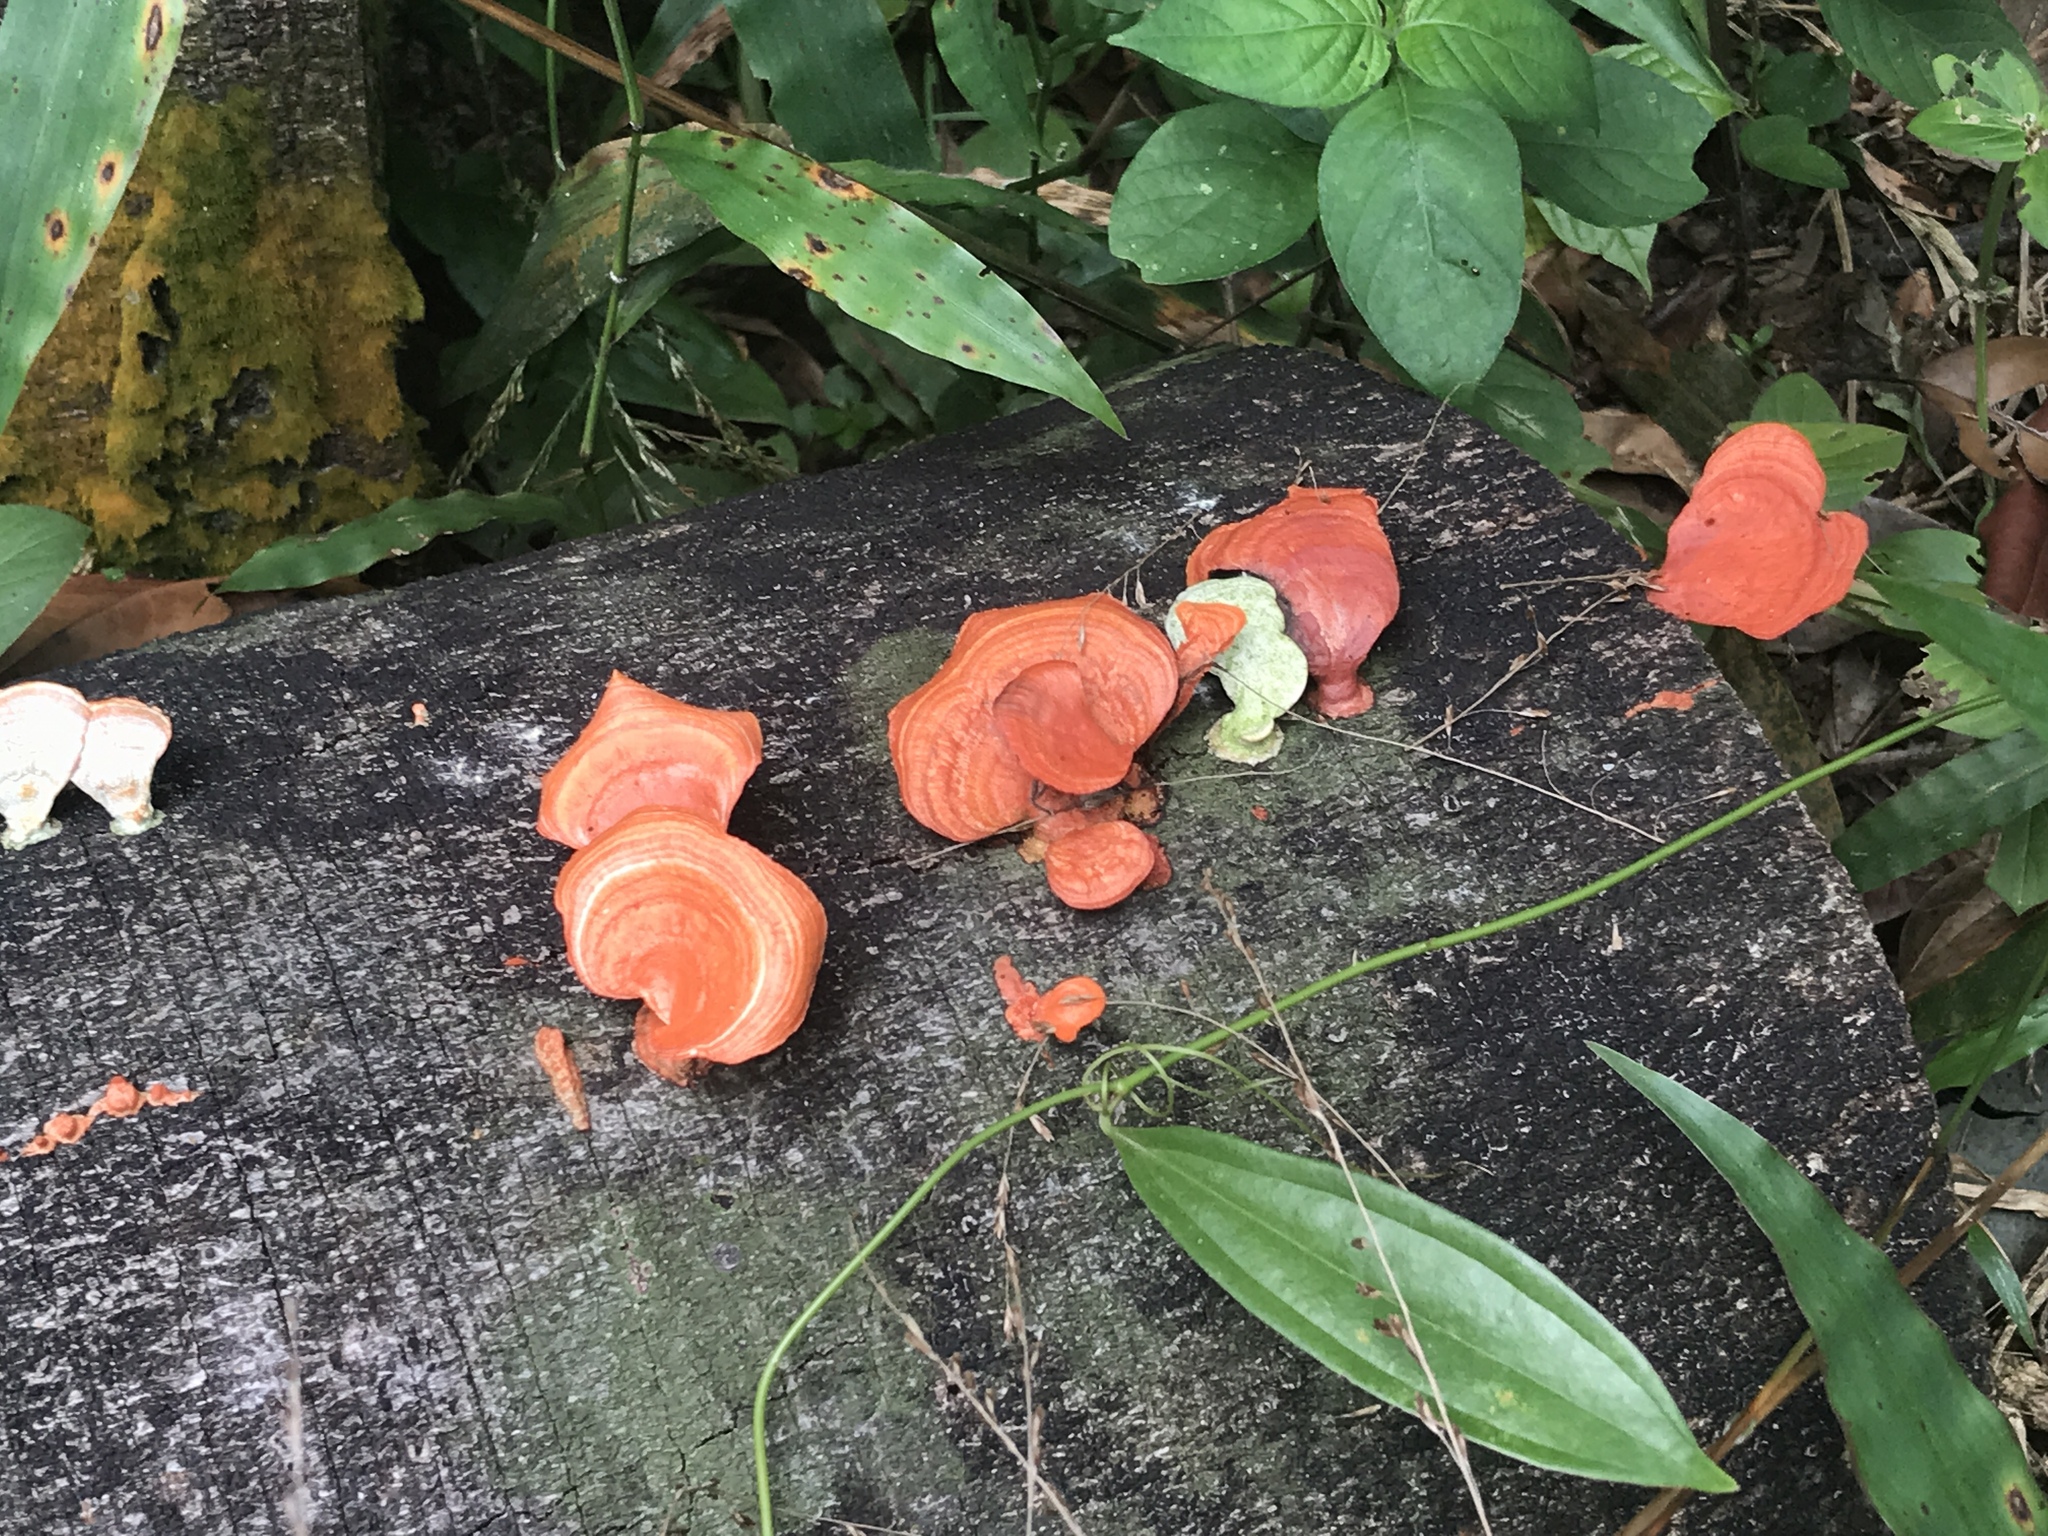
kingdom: Fungi
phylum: Basidiomycota
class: Agaricomycetes
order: Polyporales
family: Polyporaceae
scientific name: Polyporaceae
